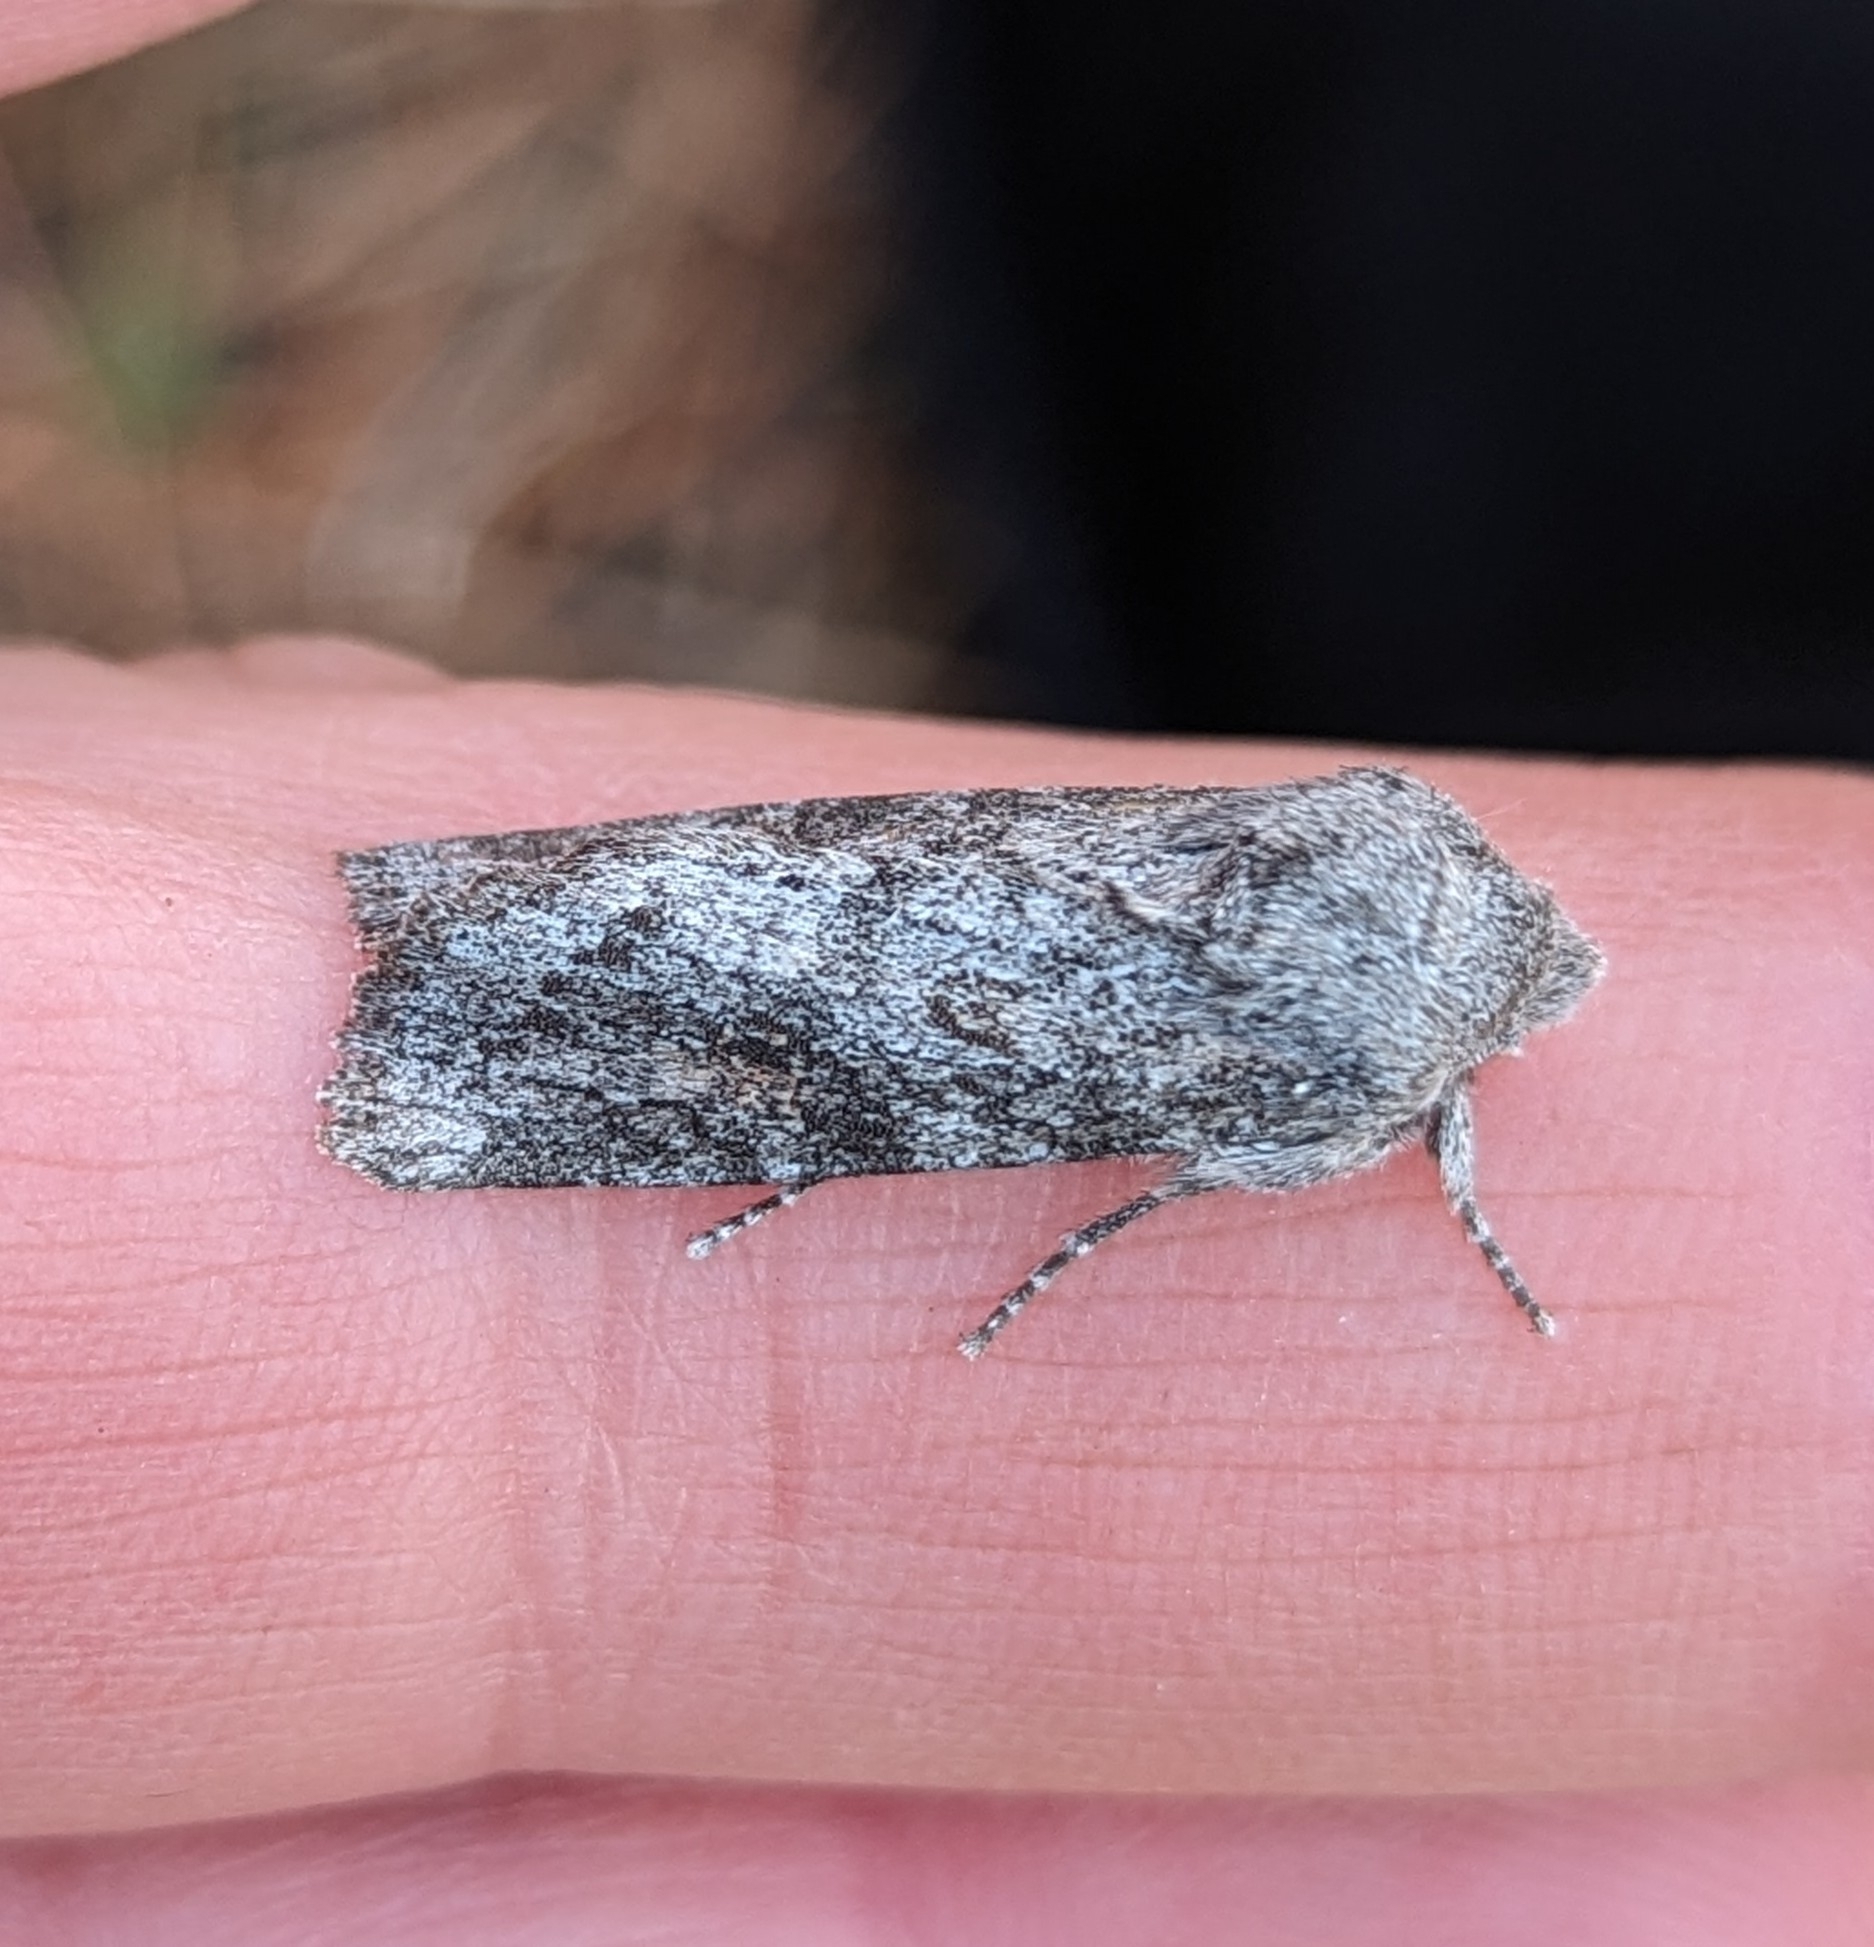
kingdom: Animalia
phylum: Arthropoda
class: Insecta
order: Lepidoptera
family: Noctuidae
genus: Egira
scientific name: Egira curialis
